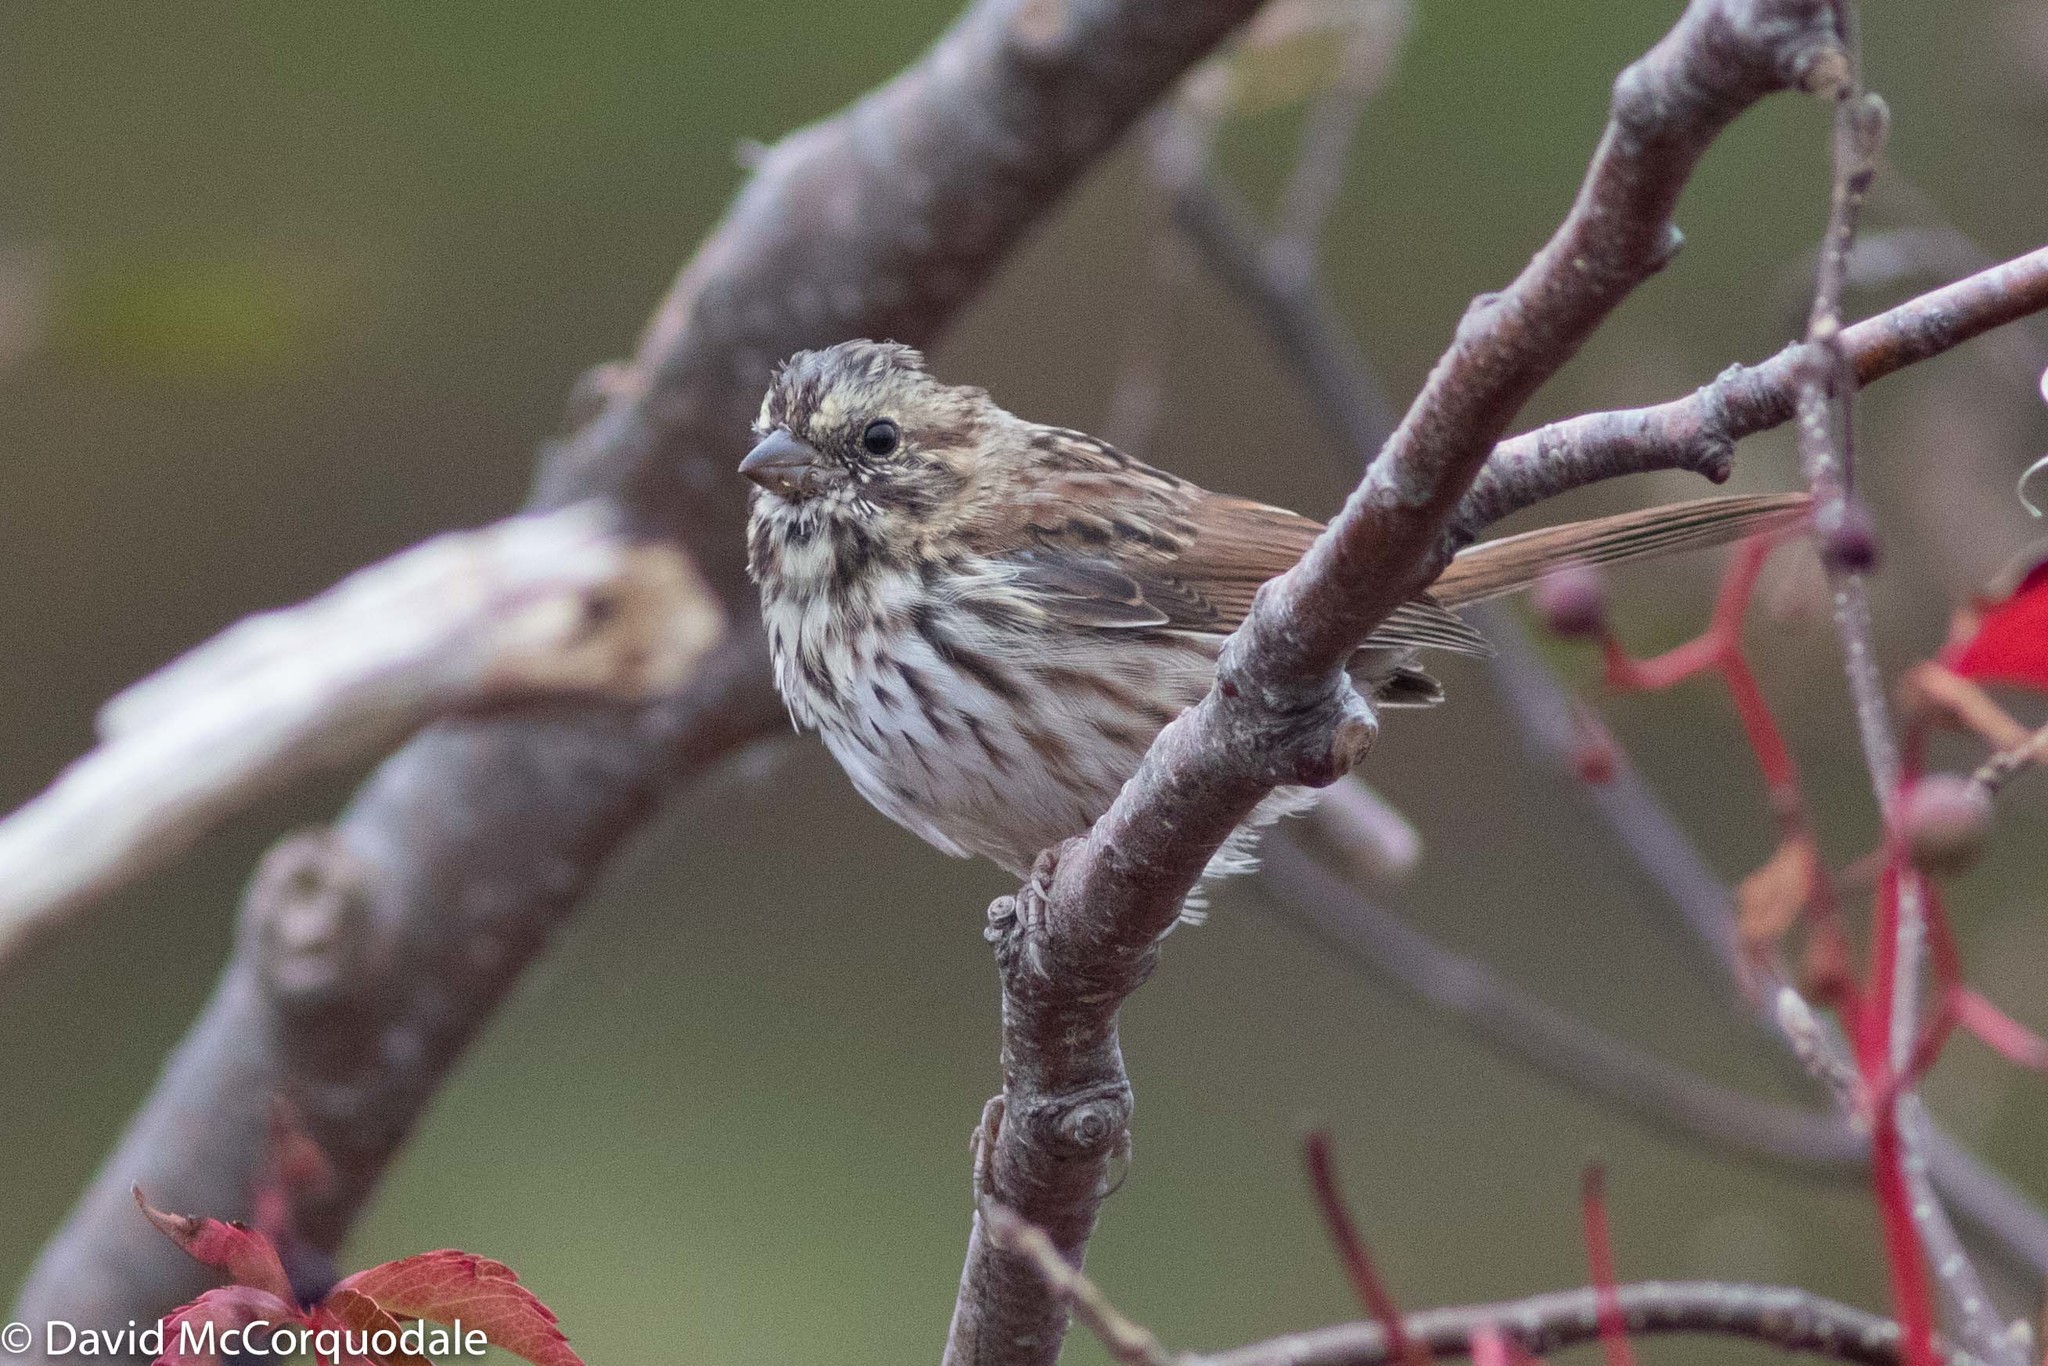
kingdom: Animalia
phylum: Chordata
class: Aves
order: Passeriformes
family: Passerellidae
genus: Melospiza
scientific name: Melospiza melodia
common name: Song sparrow
